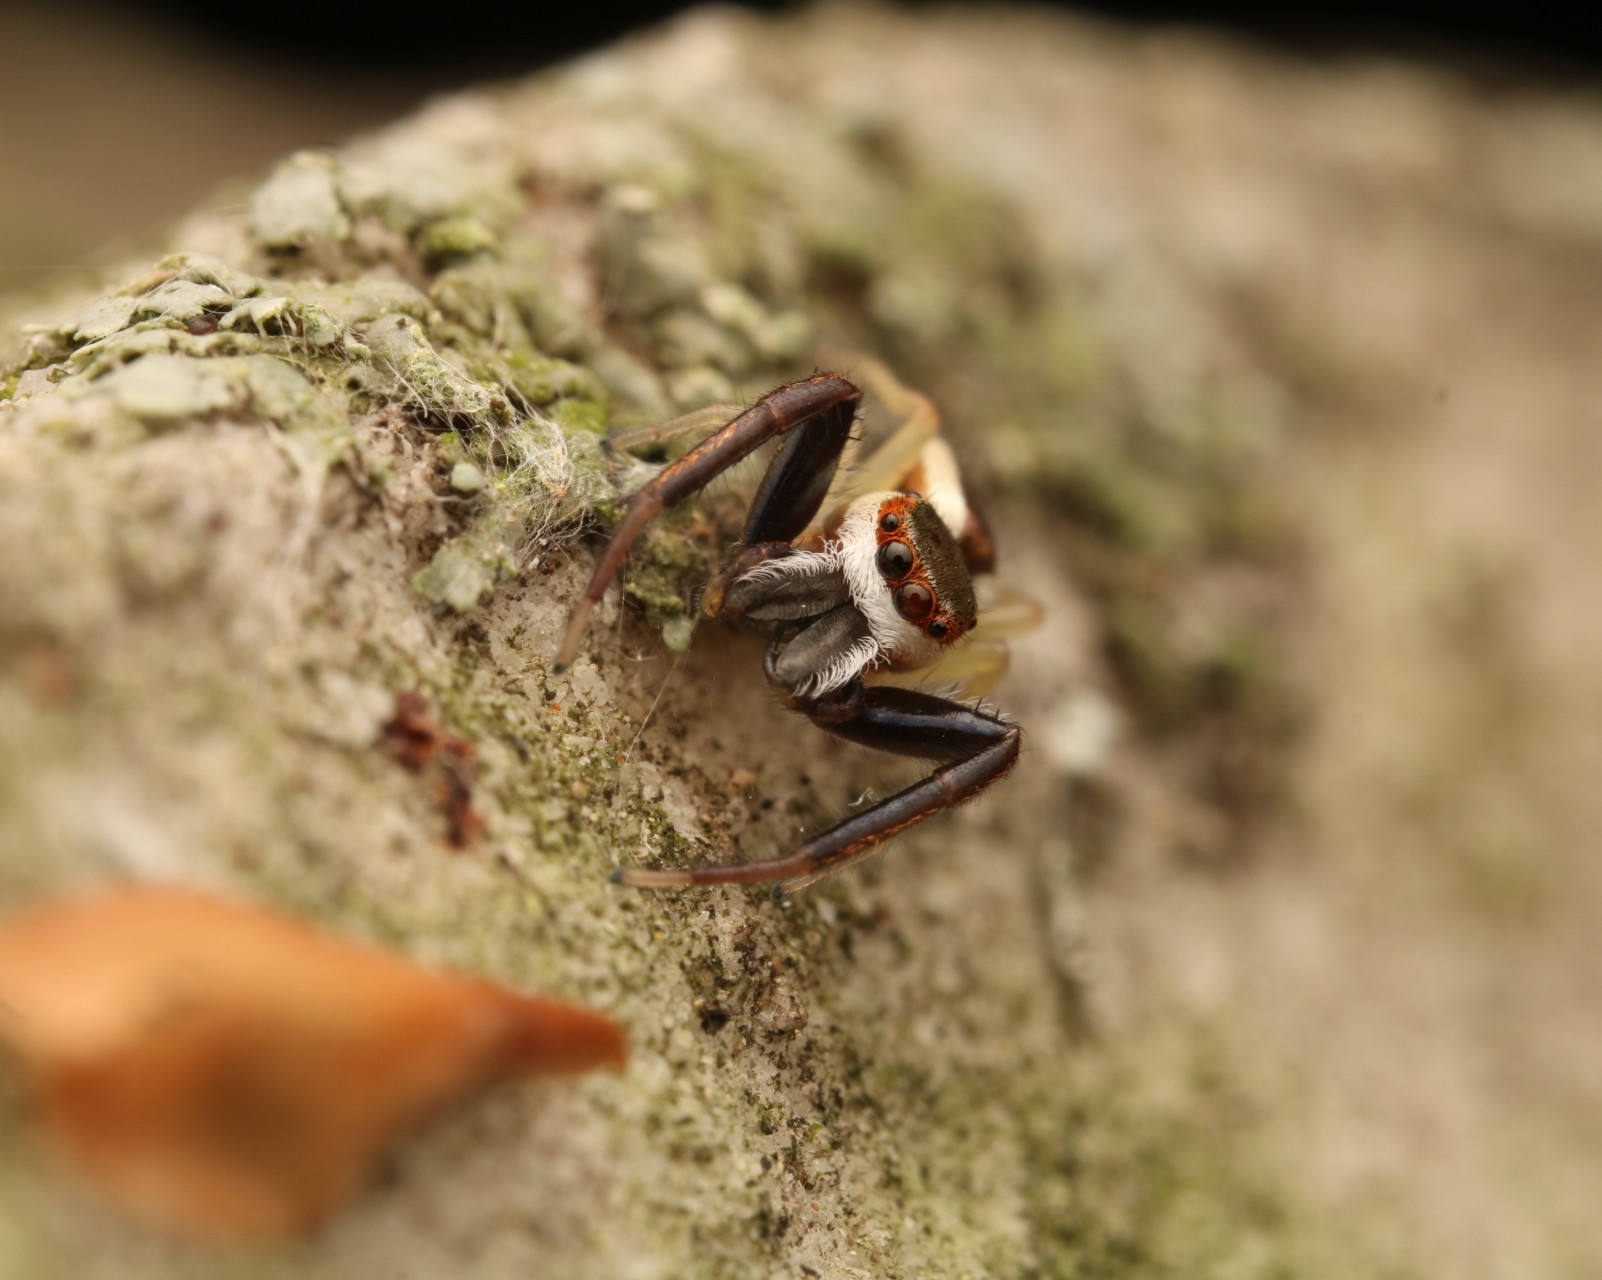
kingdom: Animalia
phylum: Arthropoda
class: Arachnida
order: Araneae
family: Salticidae
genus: Hentzia
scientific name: Hentzia palmarum
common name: Common hentz jumping spider
